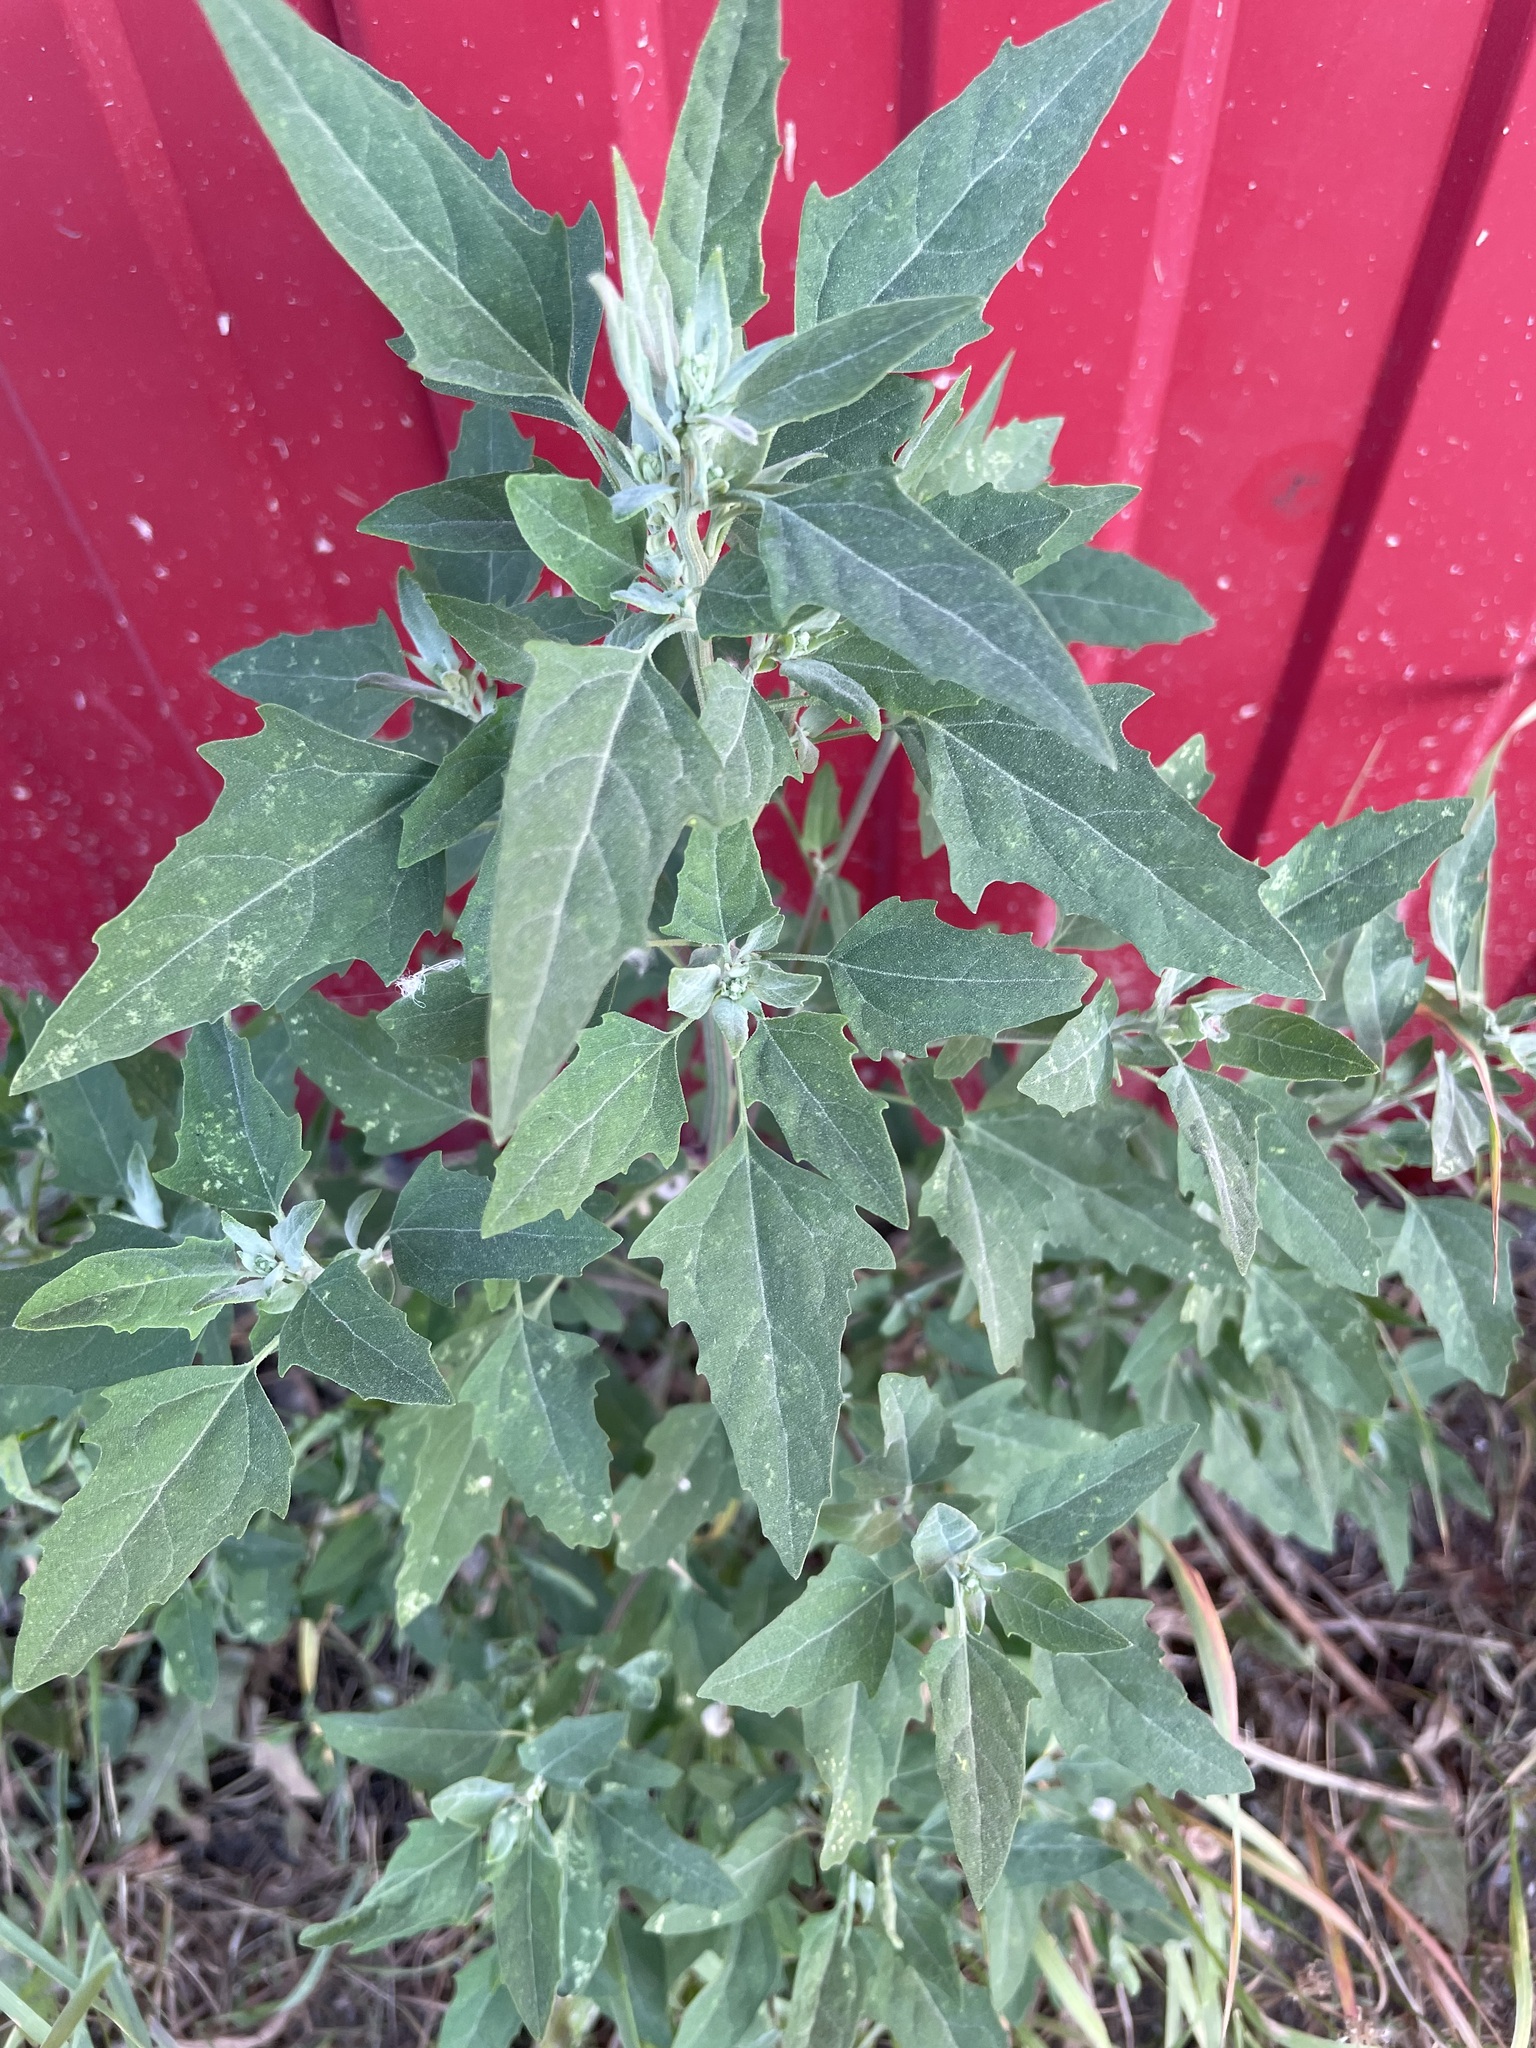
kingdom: Plantae
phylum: Tracheophyta
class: Magnoliopsida
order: Caryophyllales
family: Amaranthaceae
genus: Chenopodium
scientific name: Chenopodium album
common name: Fat-hen
